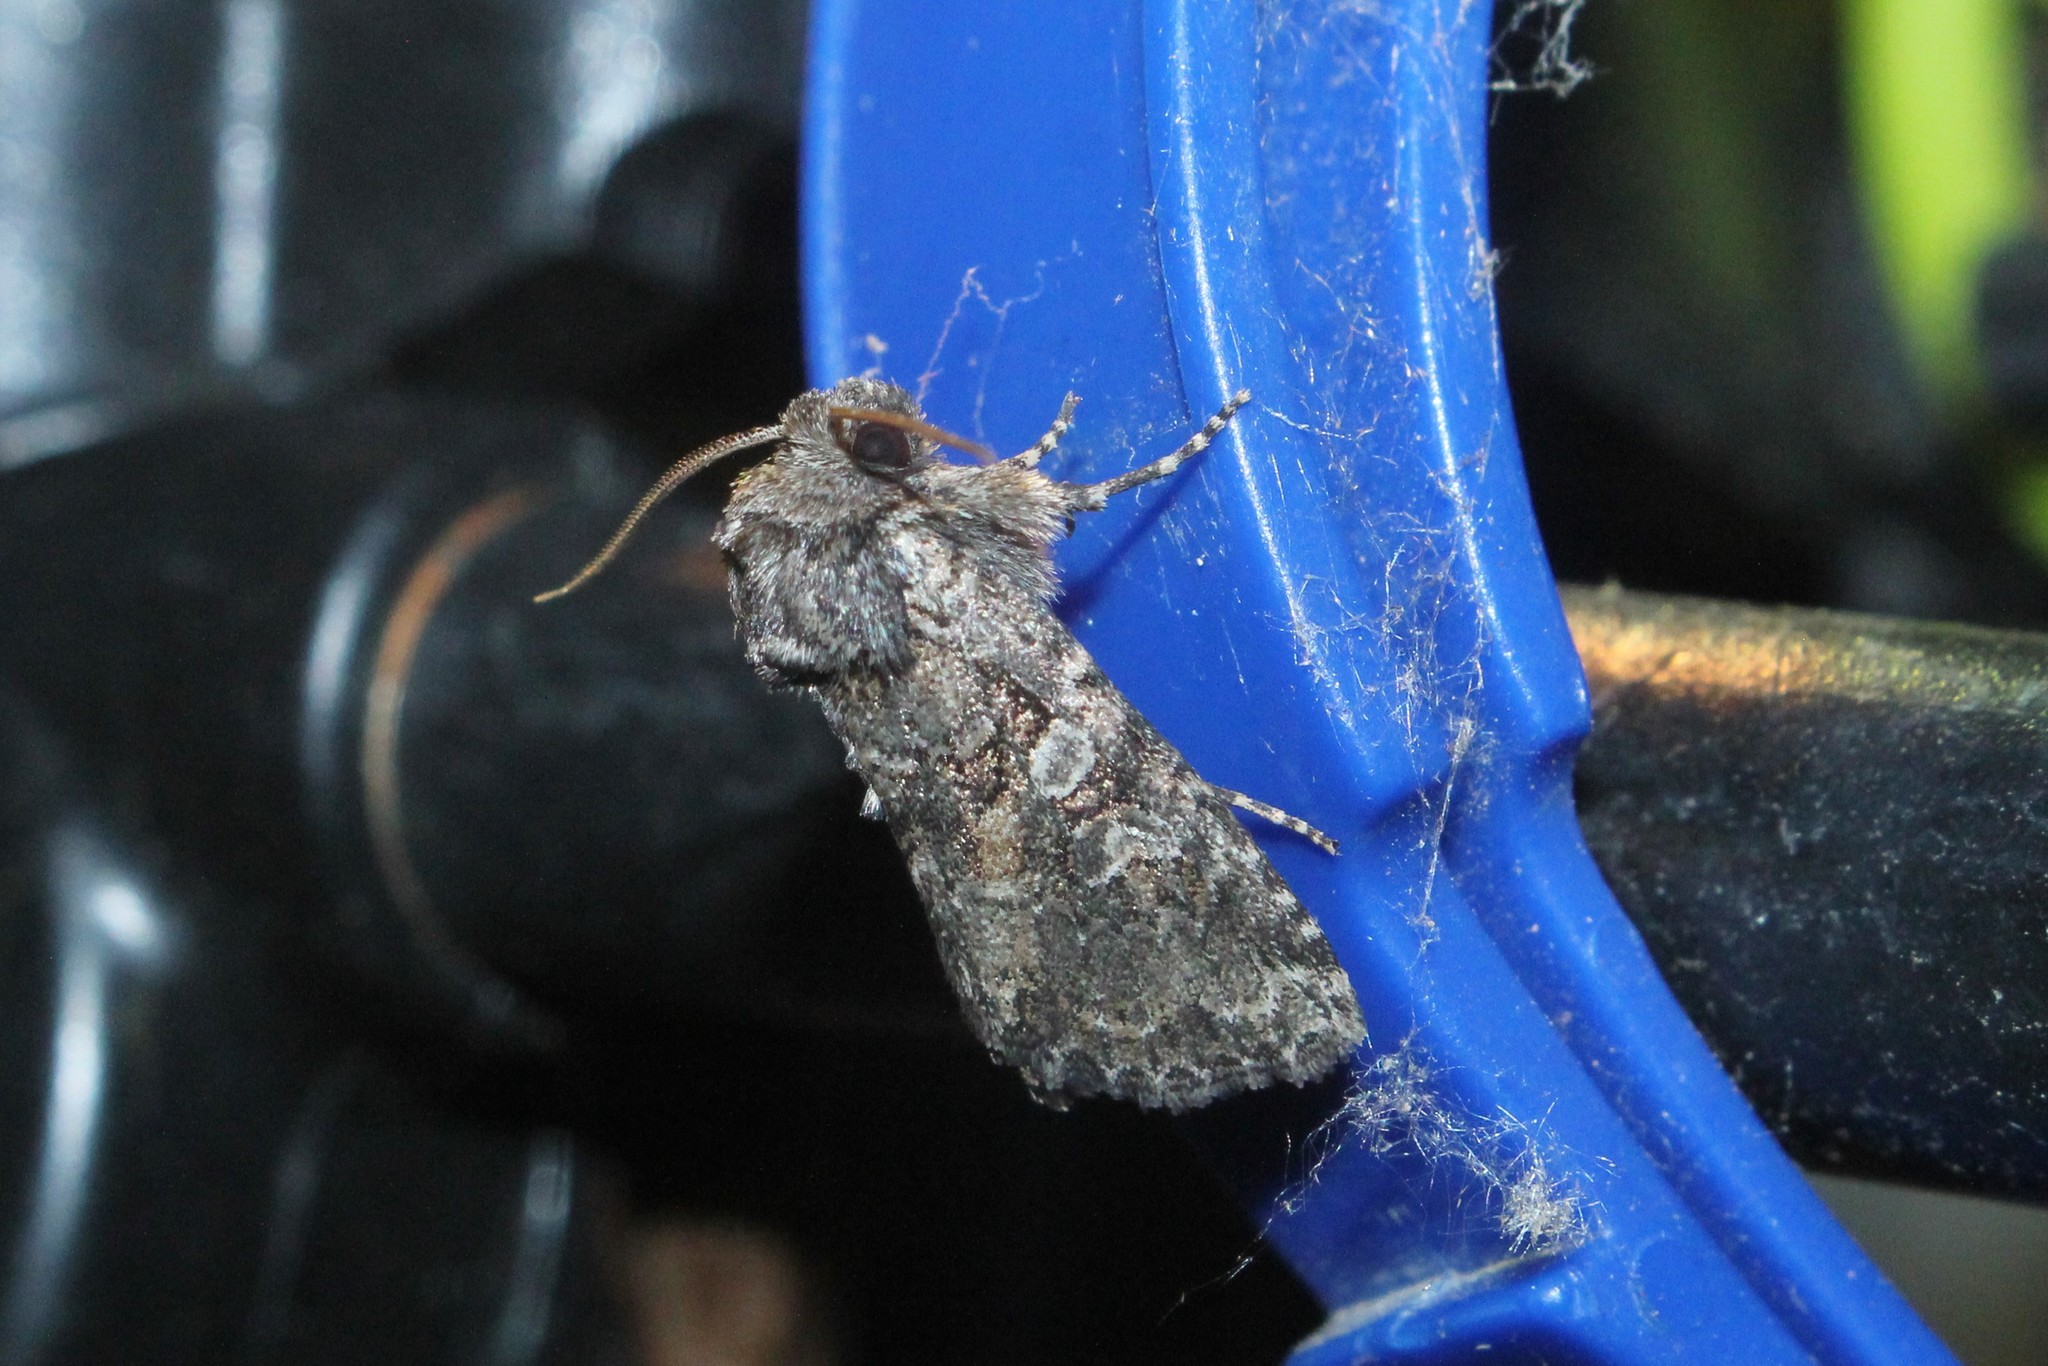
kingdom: Animalia
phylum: Arthropoda
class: Insecta
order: Lepidoptera
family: Noctuidae
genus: Orthodes
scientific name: Orthodes detracta
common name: Disparaged arches moth
